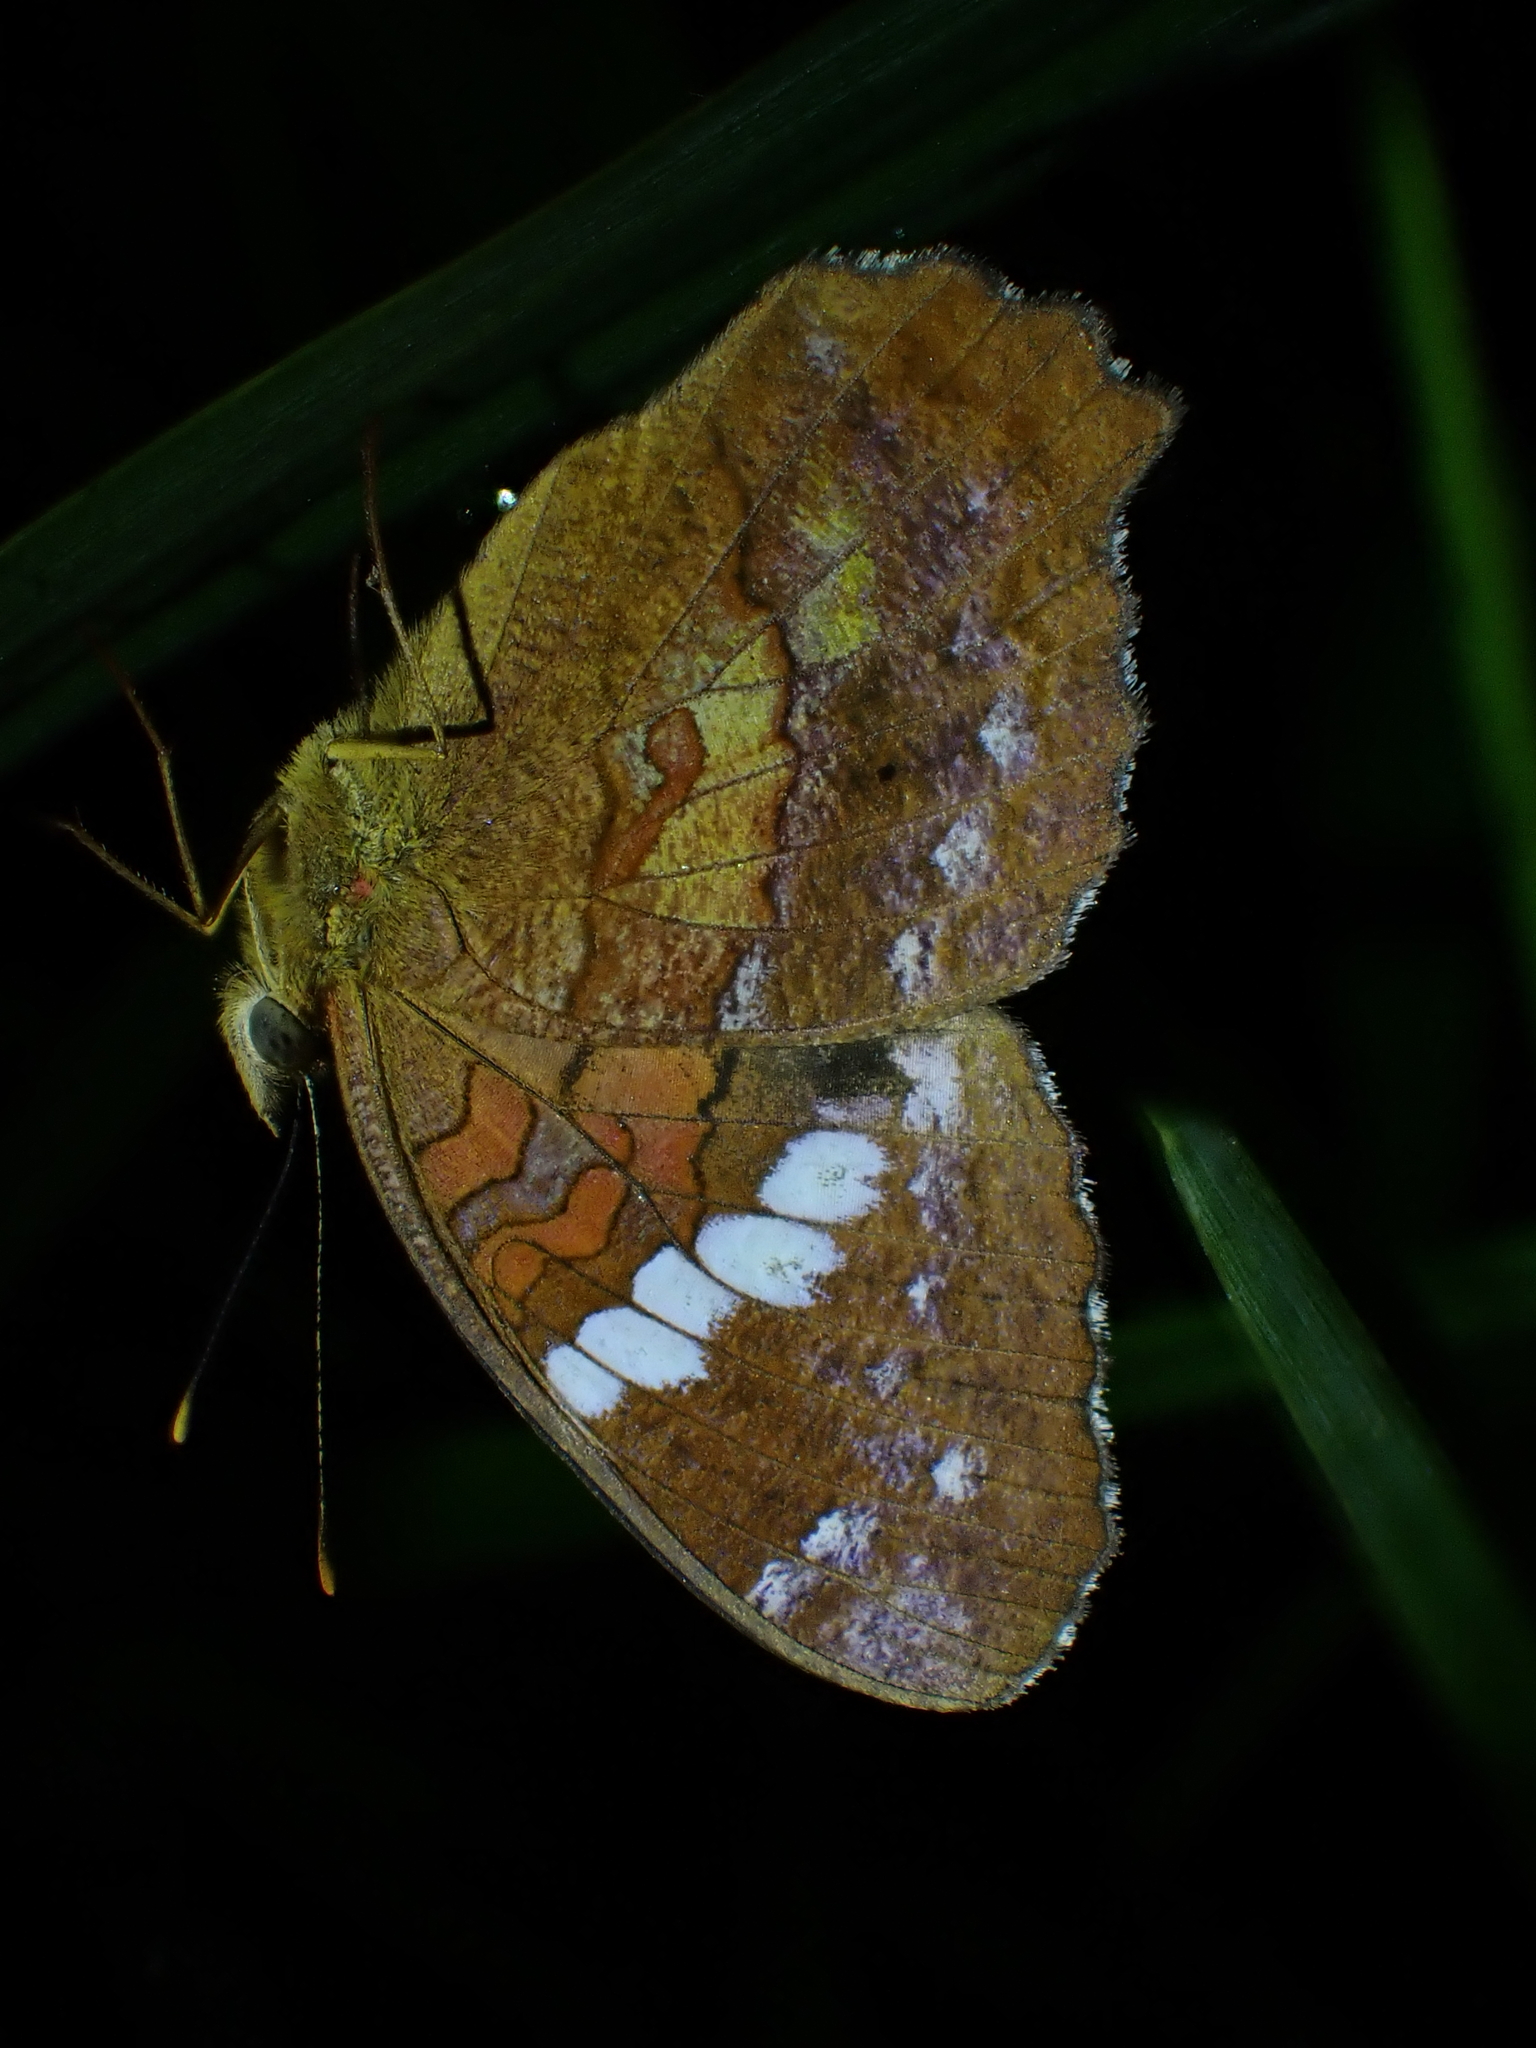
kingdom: Animalia
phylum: Arthropoda
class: Insecta
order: Lepidoptera
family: Nymphalidae
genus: Anartia
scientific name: Anartia amathea
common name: Red peacock
